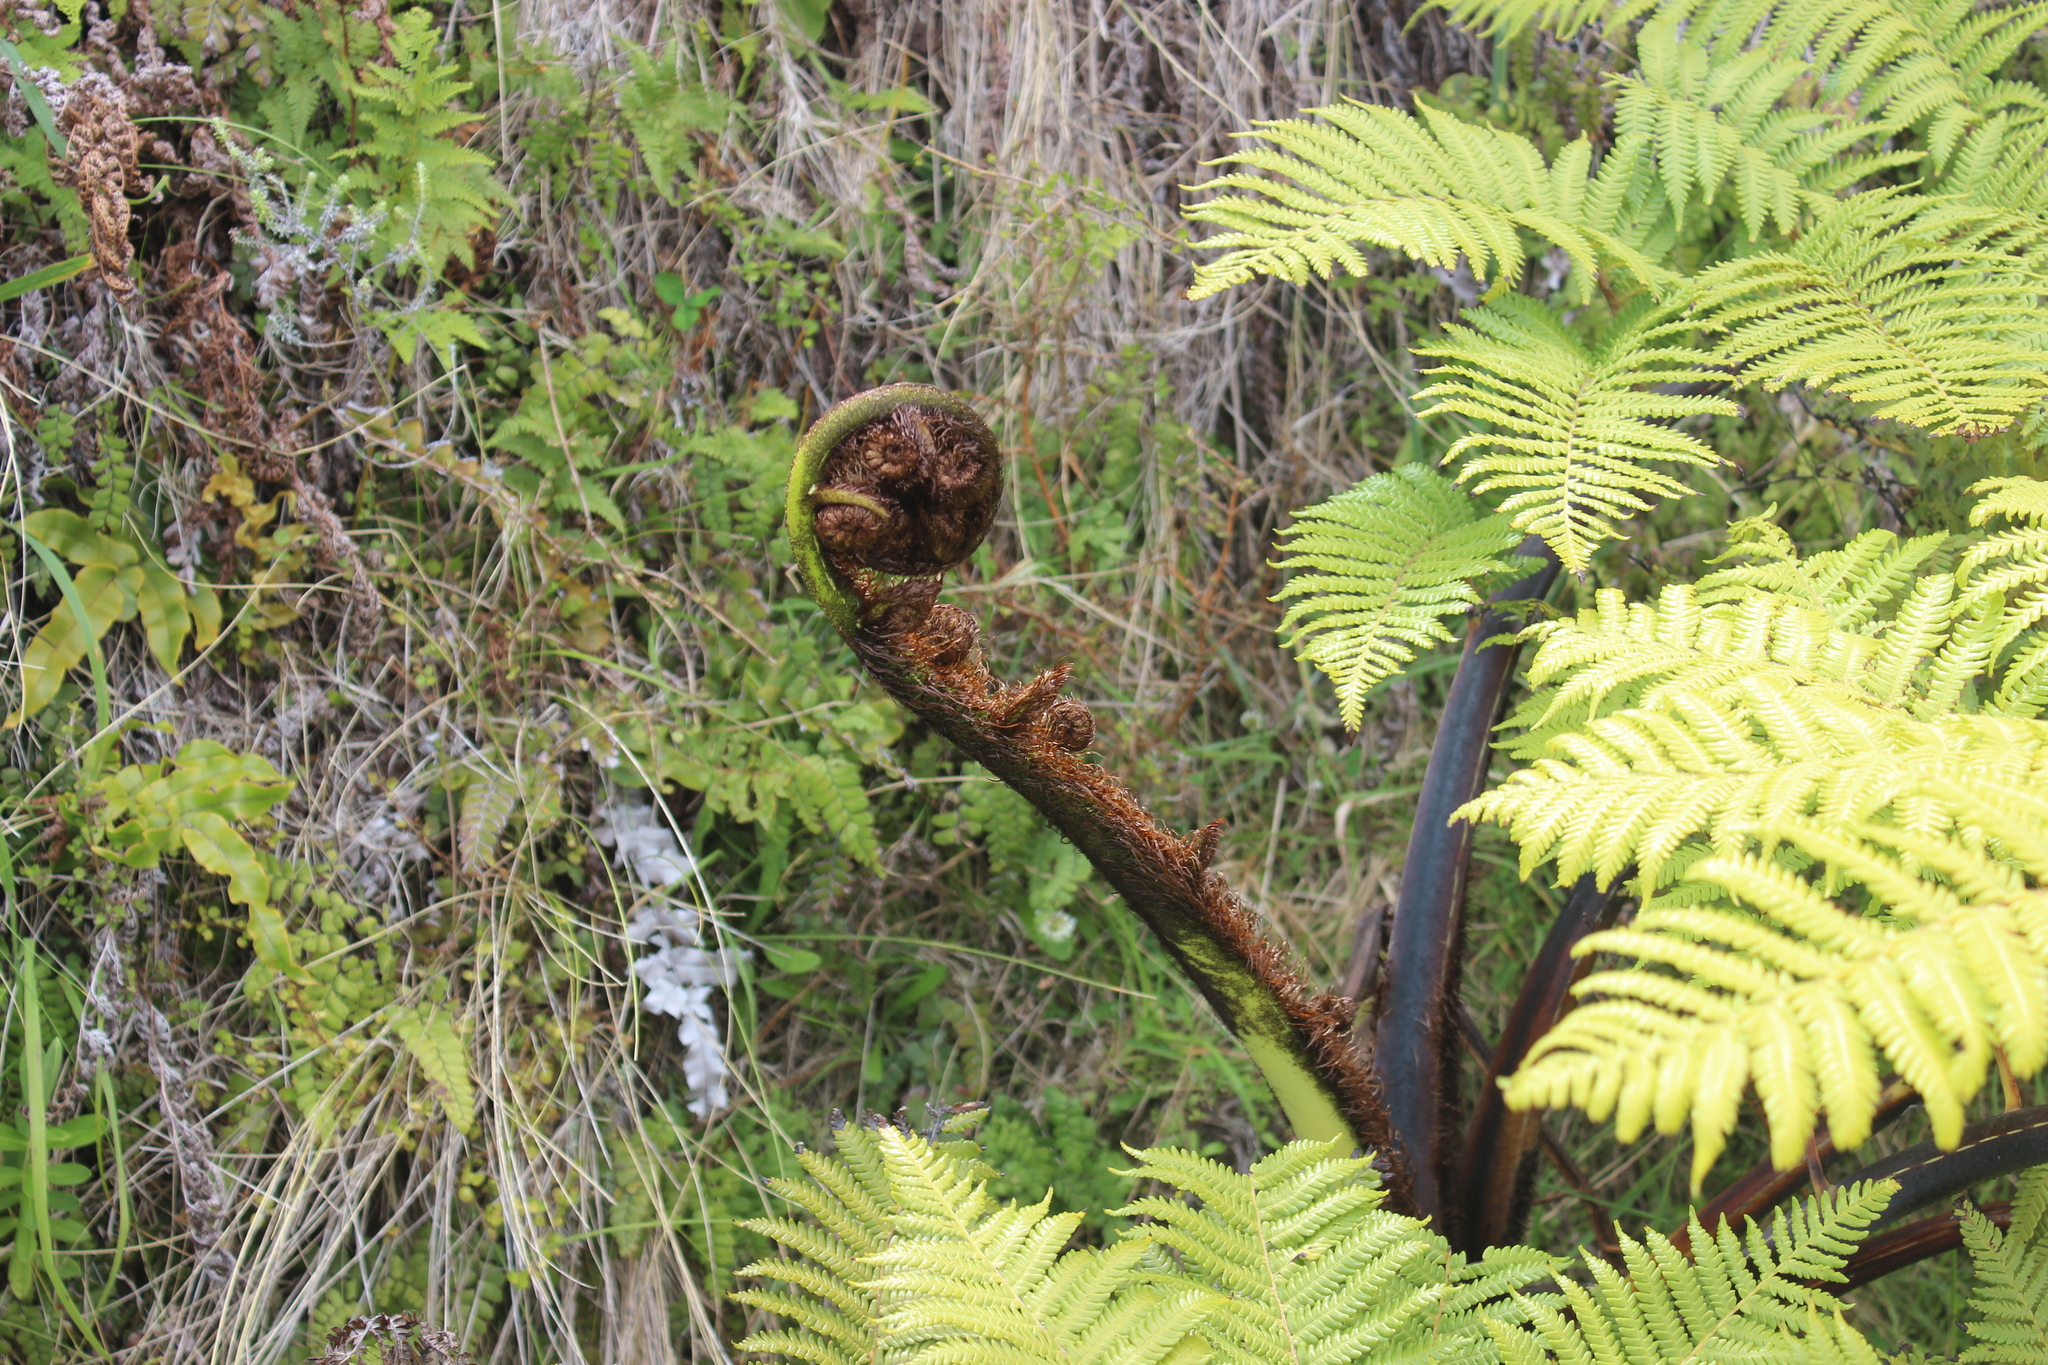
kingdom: Plantae
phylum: Tracheophyta
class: Polypodiopsida
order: Cyatheales
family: Cyatheaceae
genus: Sphaeropteris
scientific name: Sphaeropteris medullaris
